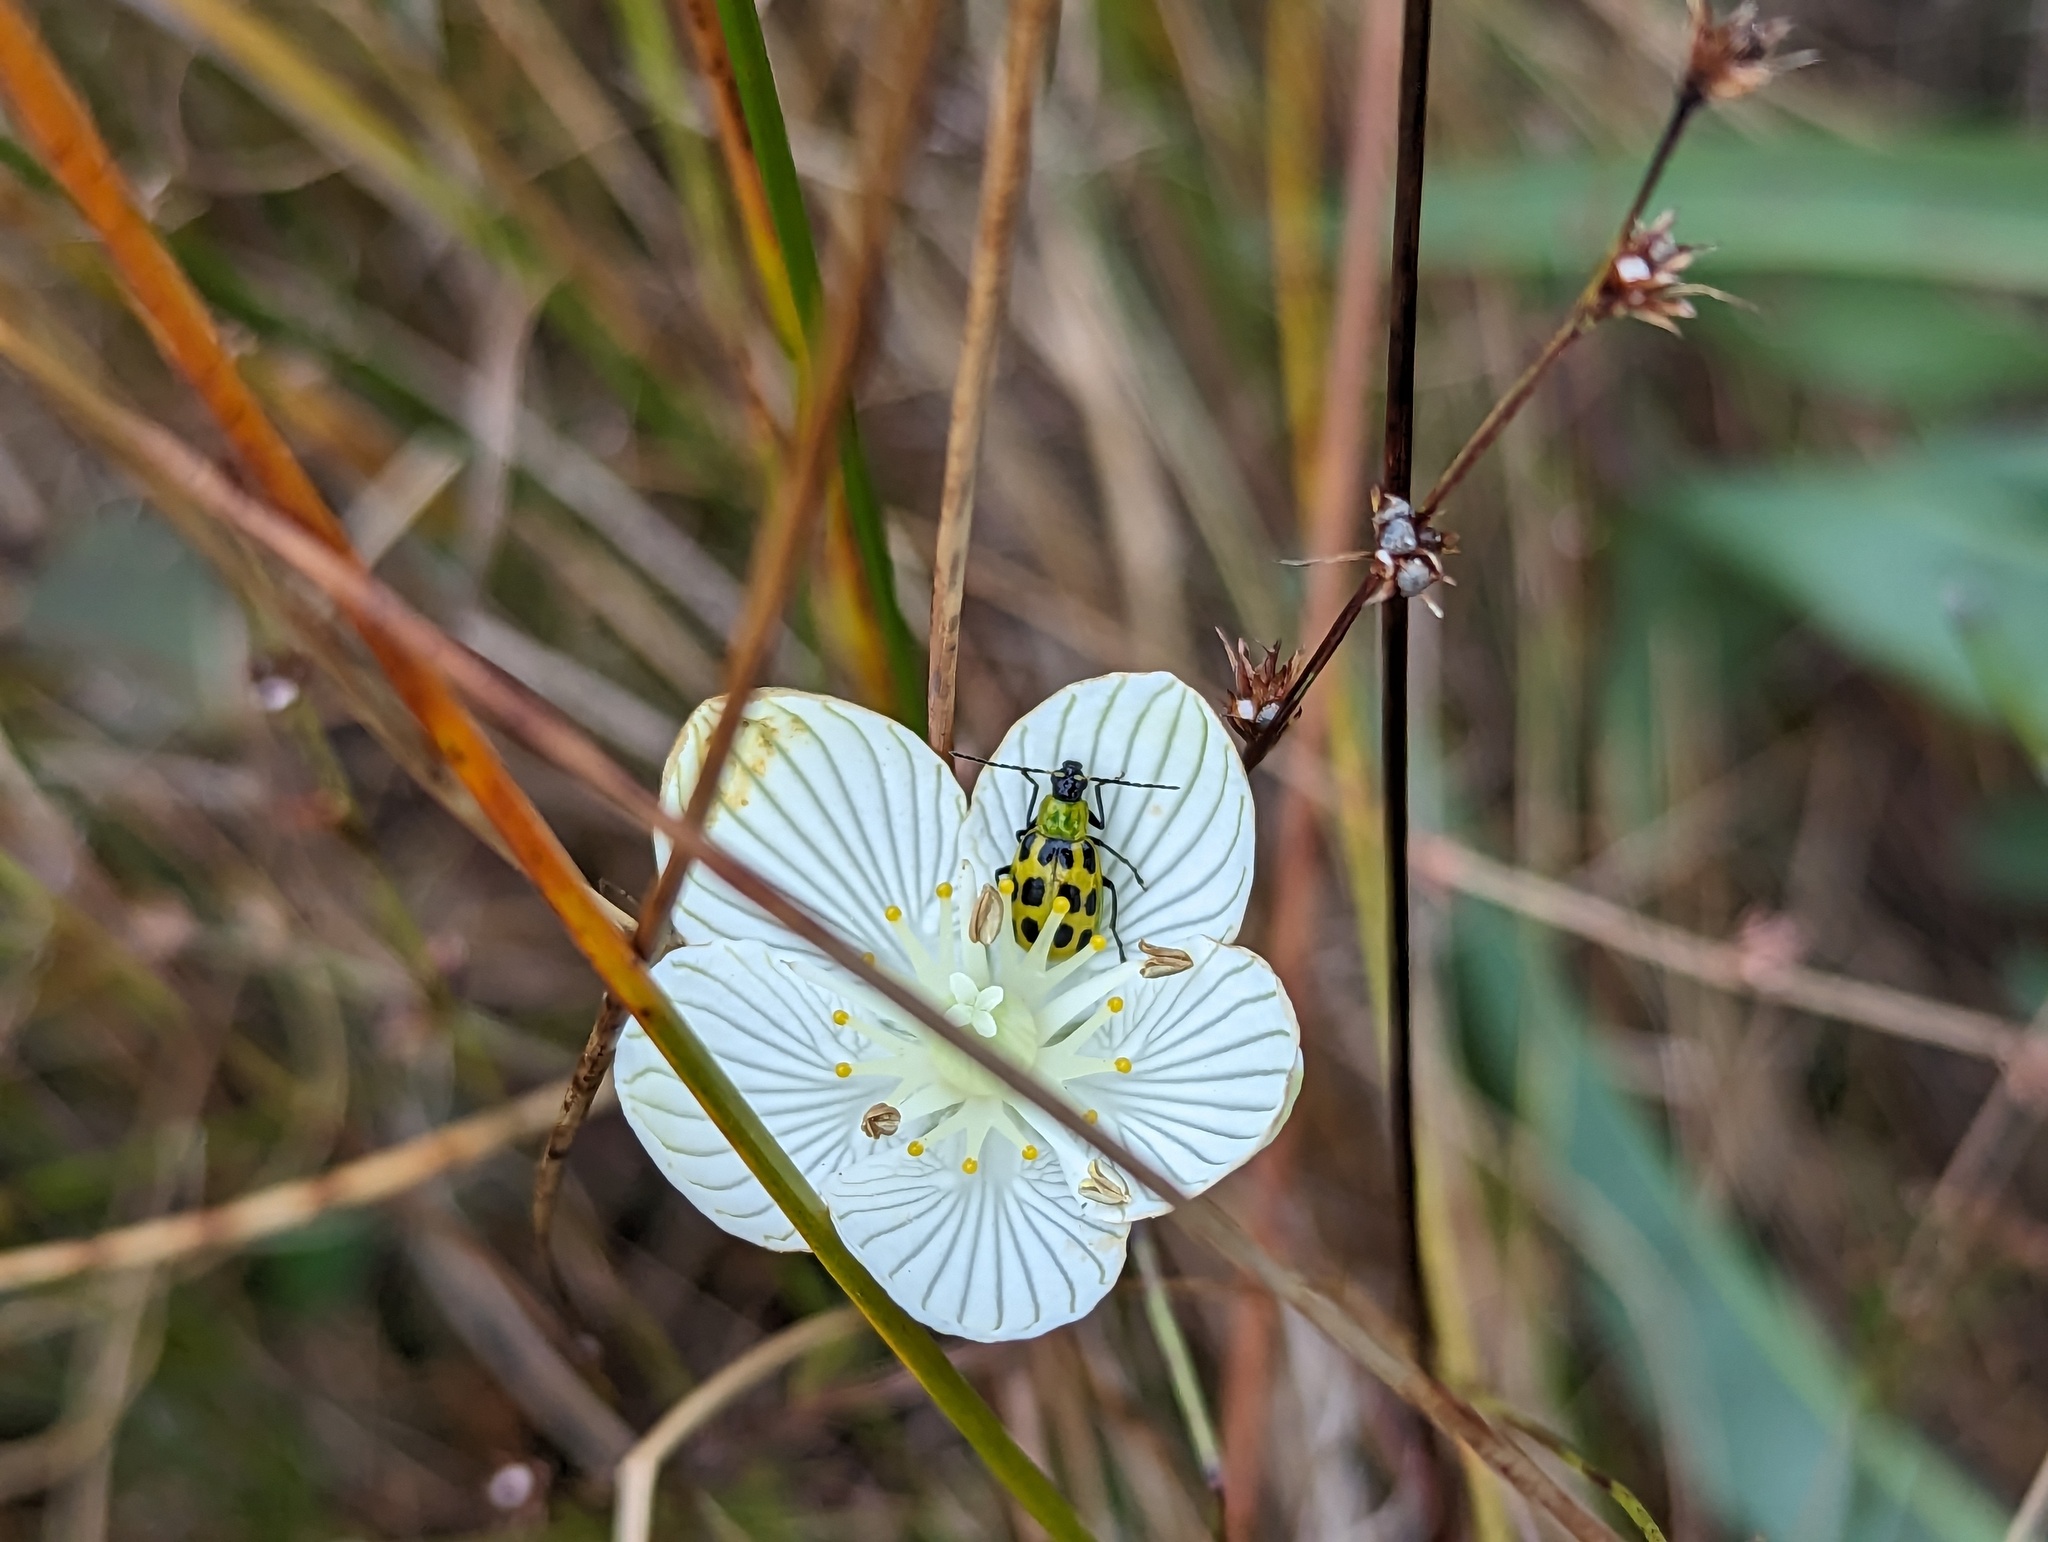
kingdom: Animalia
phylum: Arthropoda
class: Insecta
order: Coleoptera
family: Chrysomelidae
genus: Diabrotica
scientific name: Diabrotica undecimpunctata
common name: Spotted cucumber beetle
